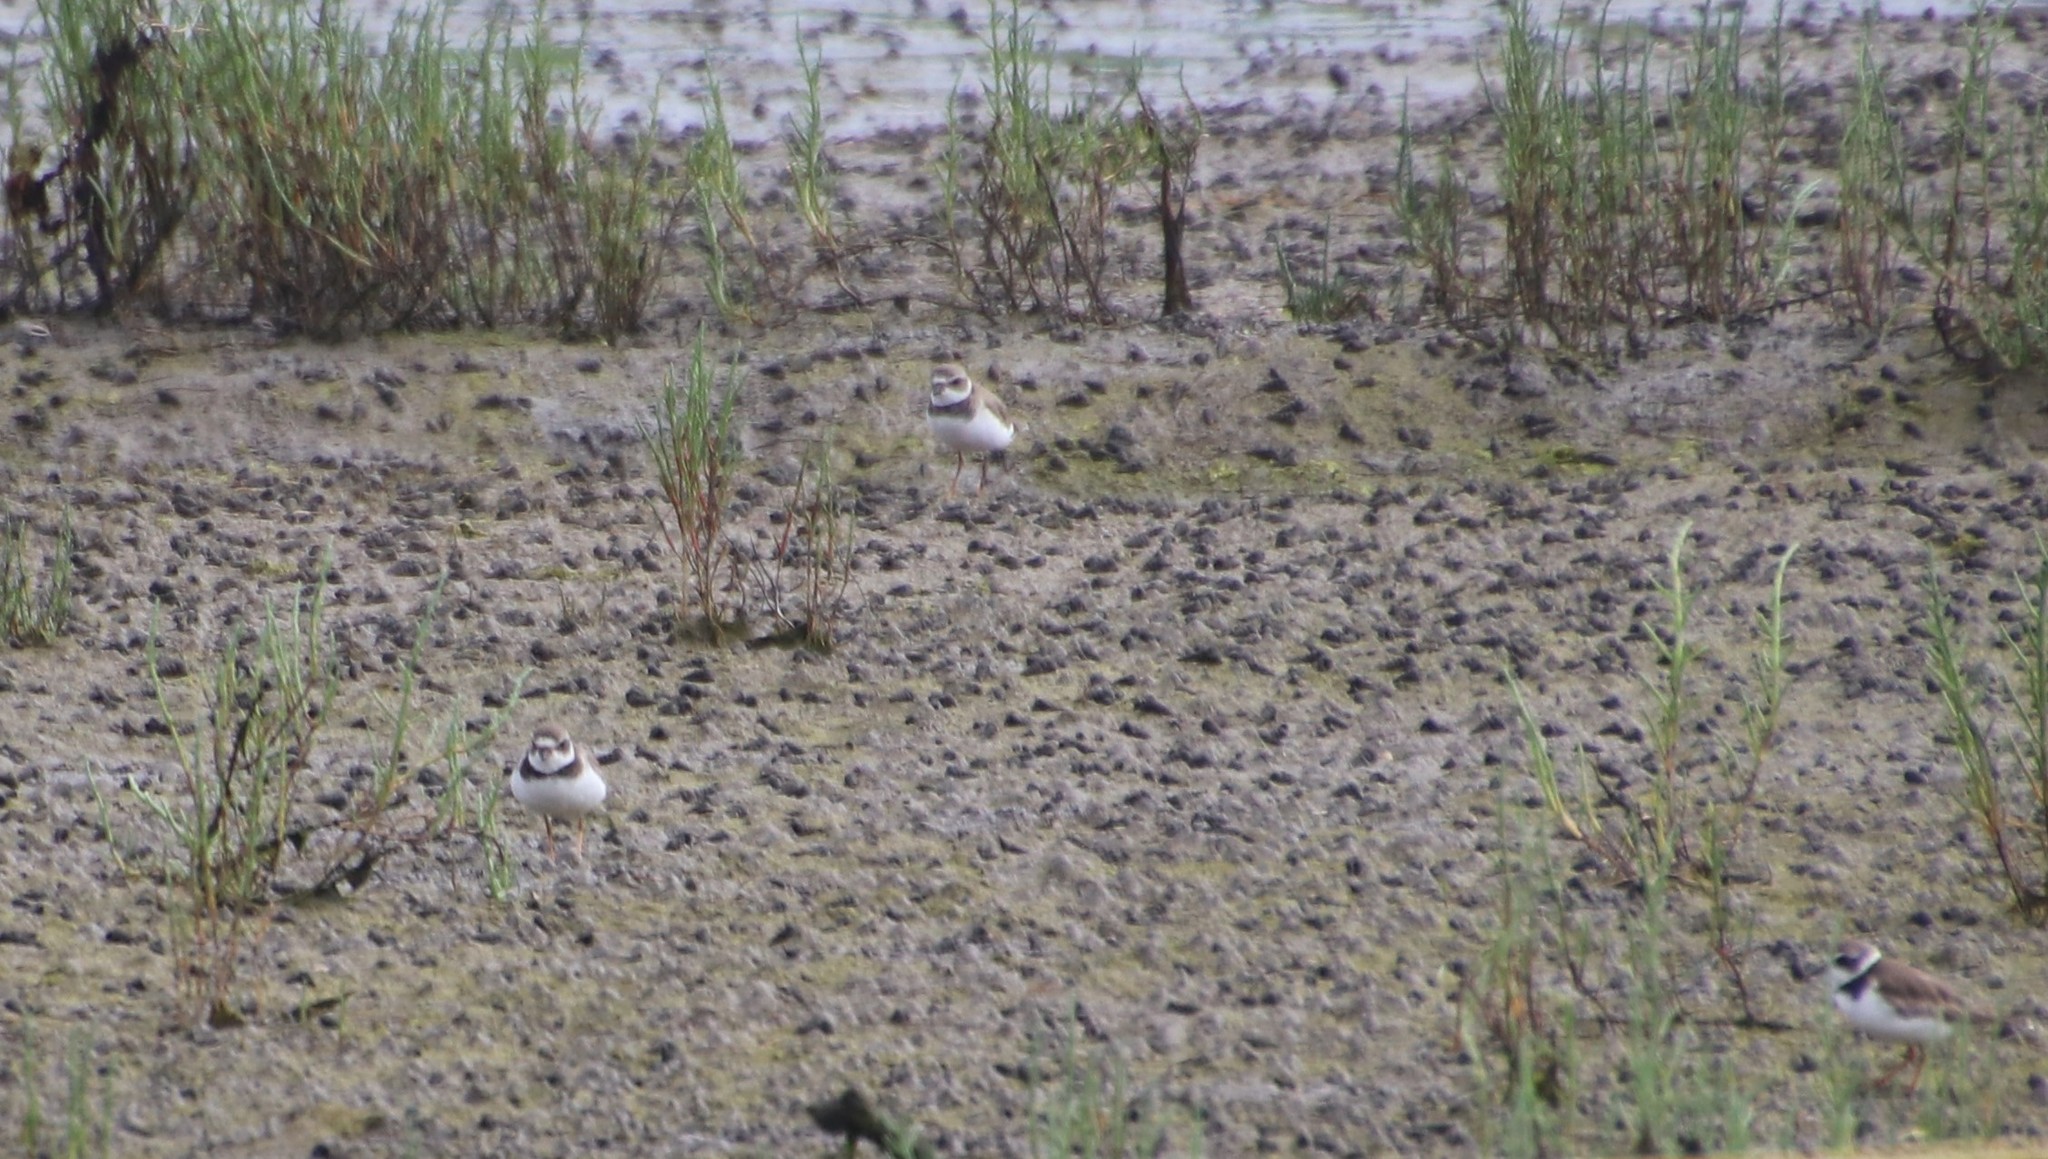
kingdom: Animalia
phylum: Chordata
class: Aves
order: Charadriiformes
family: Charadriidae
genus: Charadrius
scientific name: Charadrius semipalmatus
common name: Semipalmated plover
